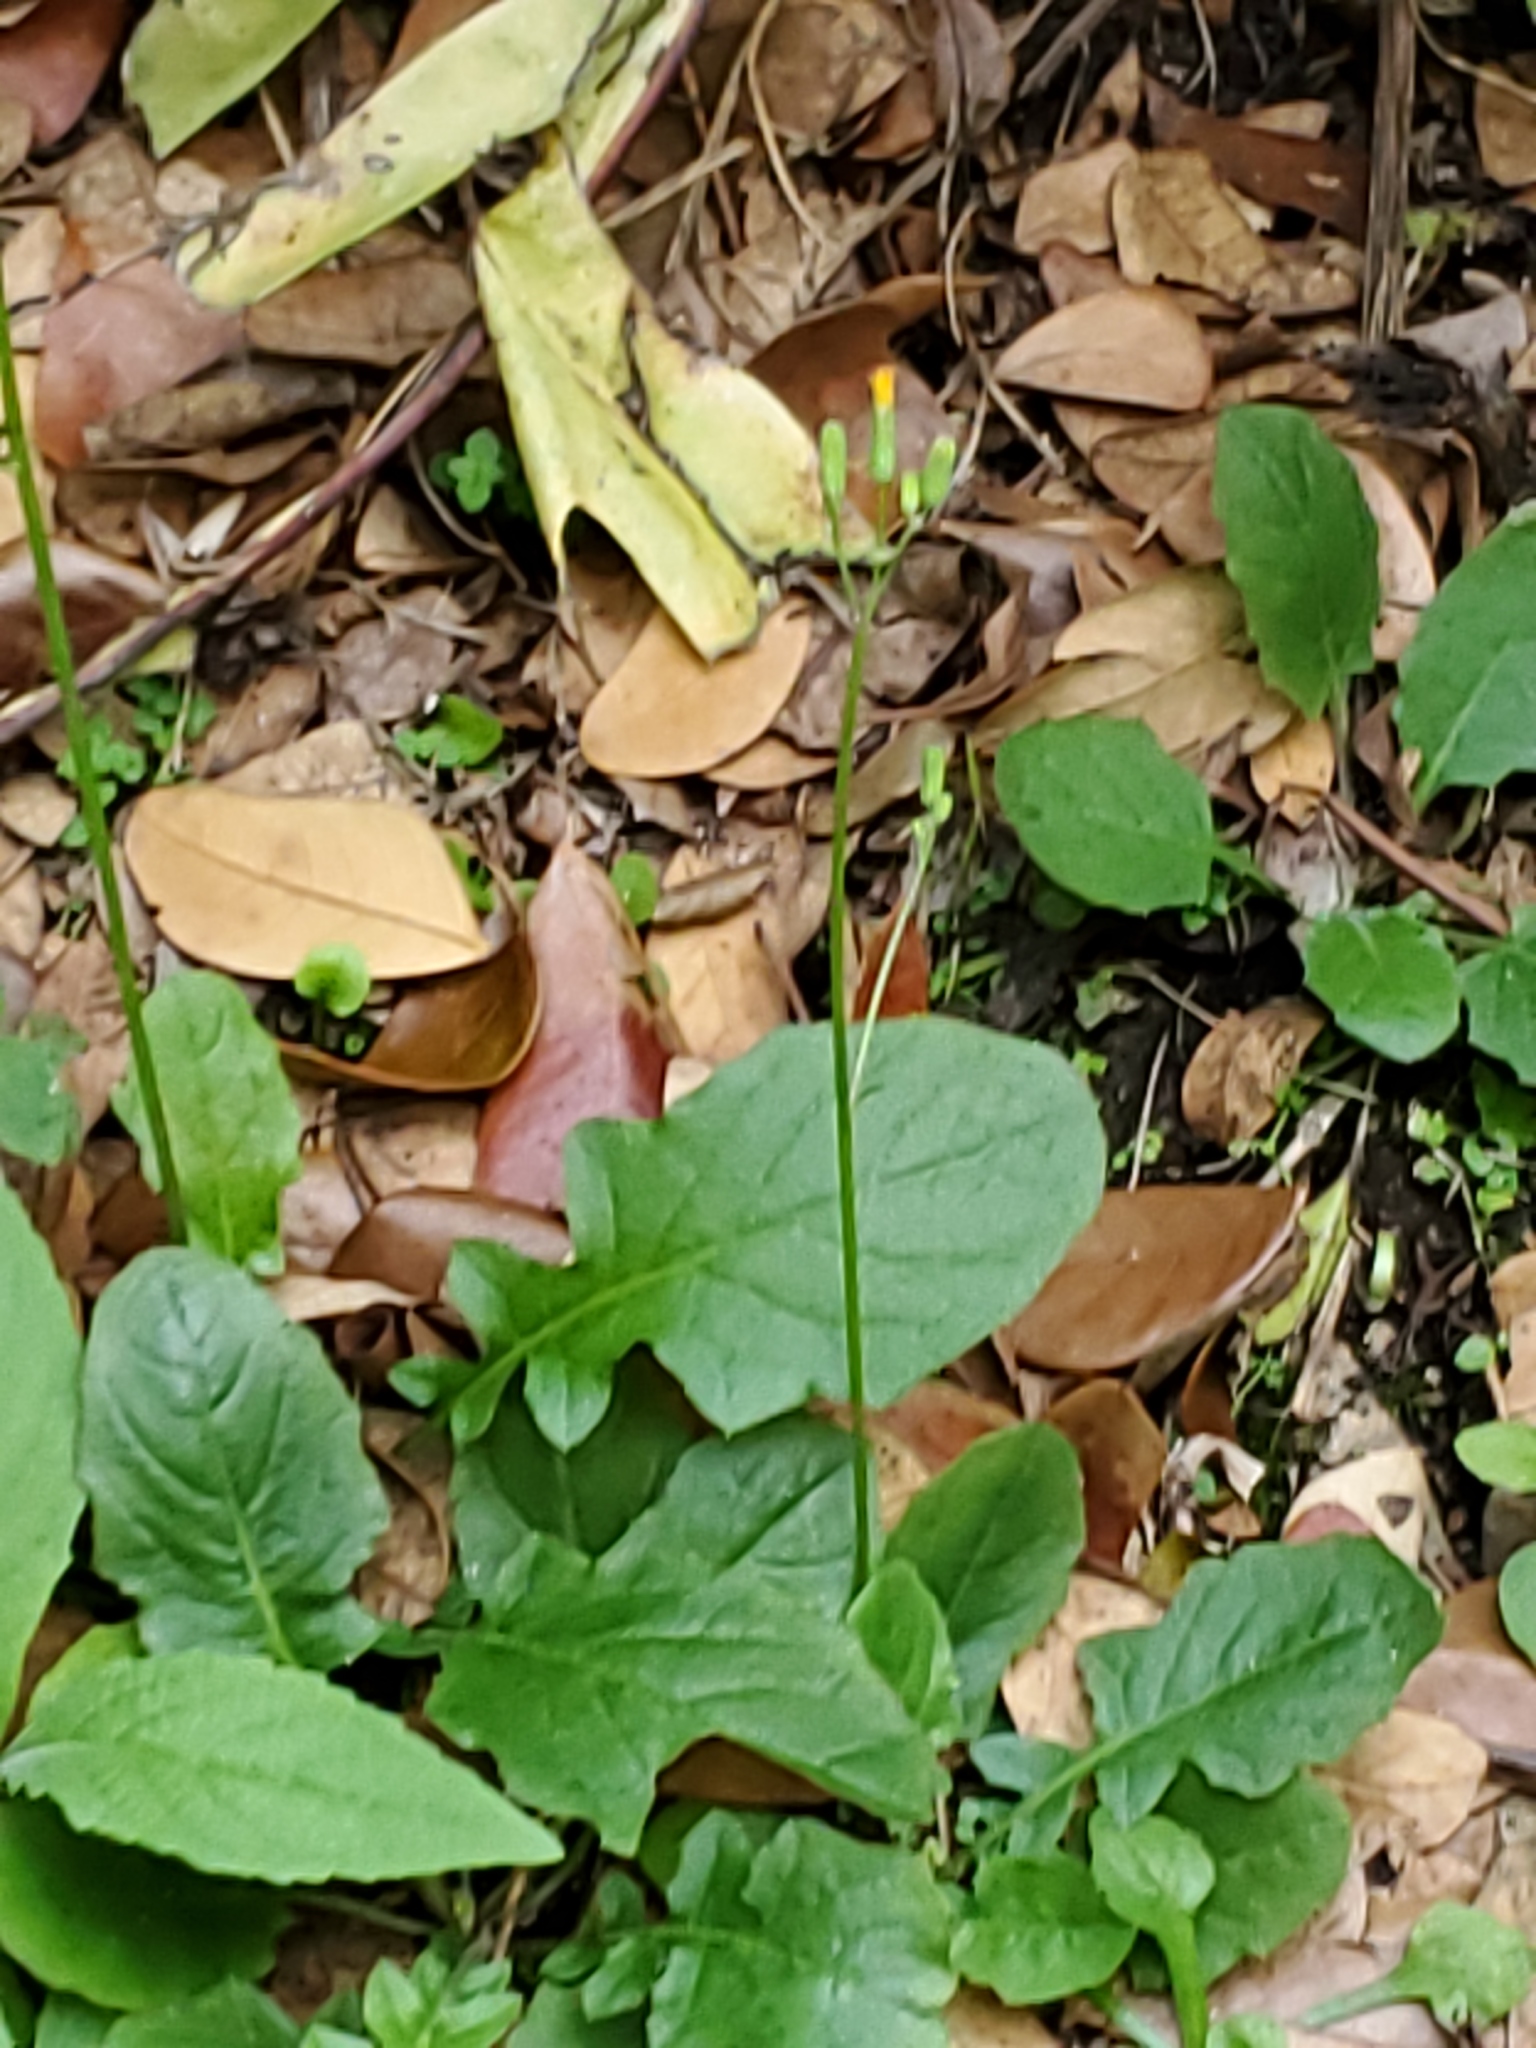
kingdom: Plantae
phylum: Tracheophyta
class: Magnoliopsida
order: Asterales
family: Asteraceae
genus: Youngia
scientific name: Youngia japonica
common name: Oriental false hawksbeard
